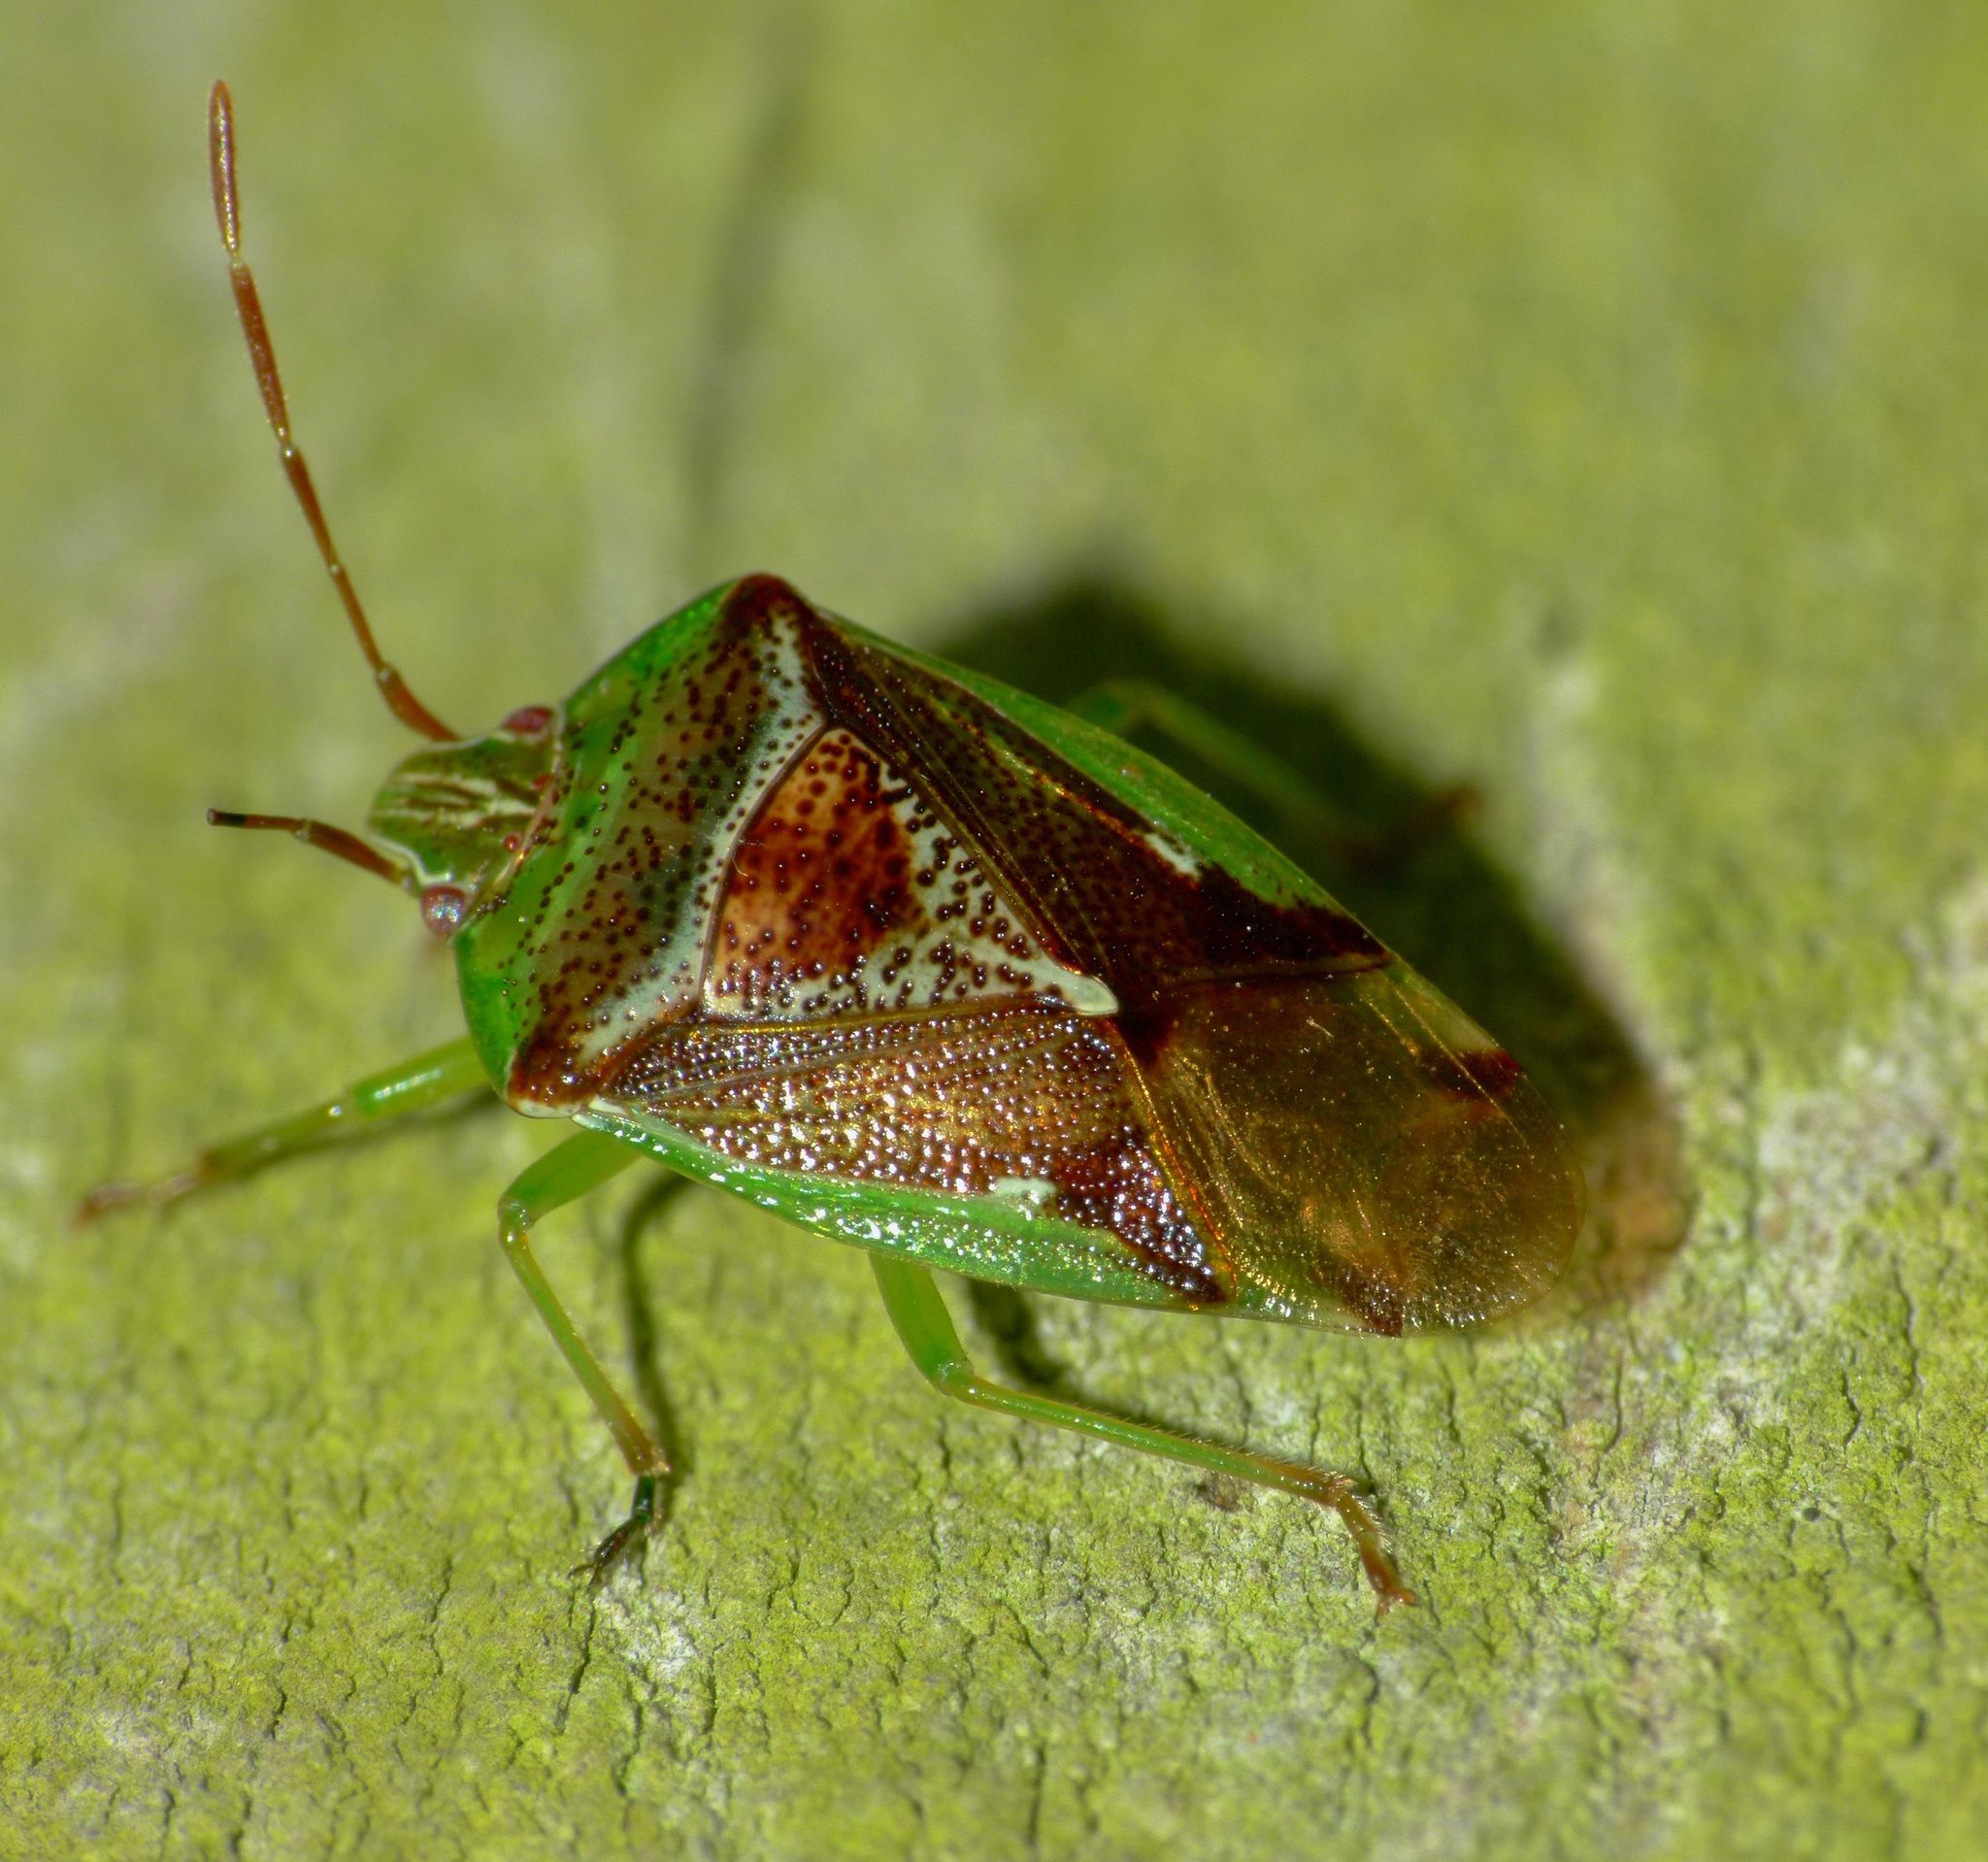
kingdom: Animalia
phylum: Arthropoda
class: Insecta
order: Hemiptera
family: Acanthosomatidae
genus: Oncacontias
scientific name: Oncacontias vittatus
